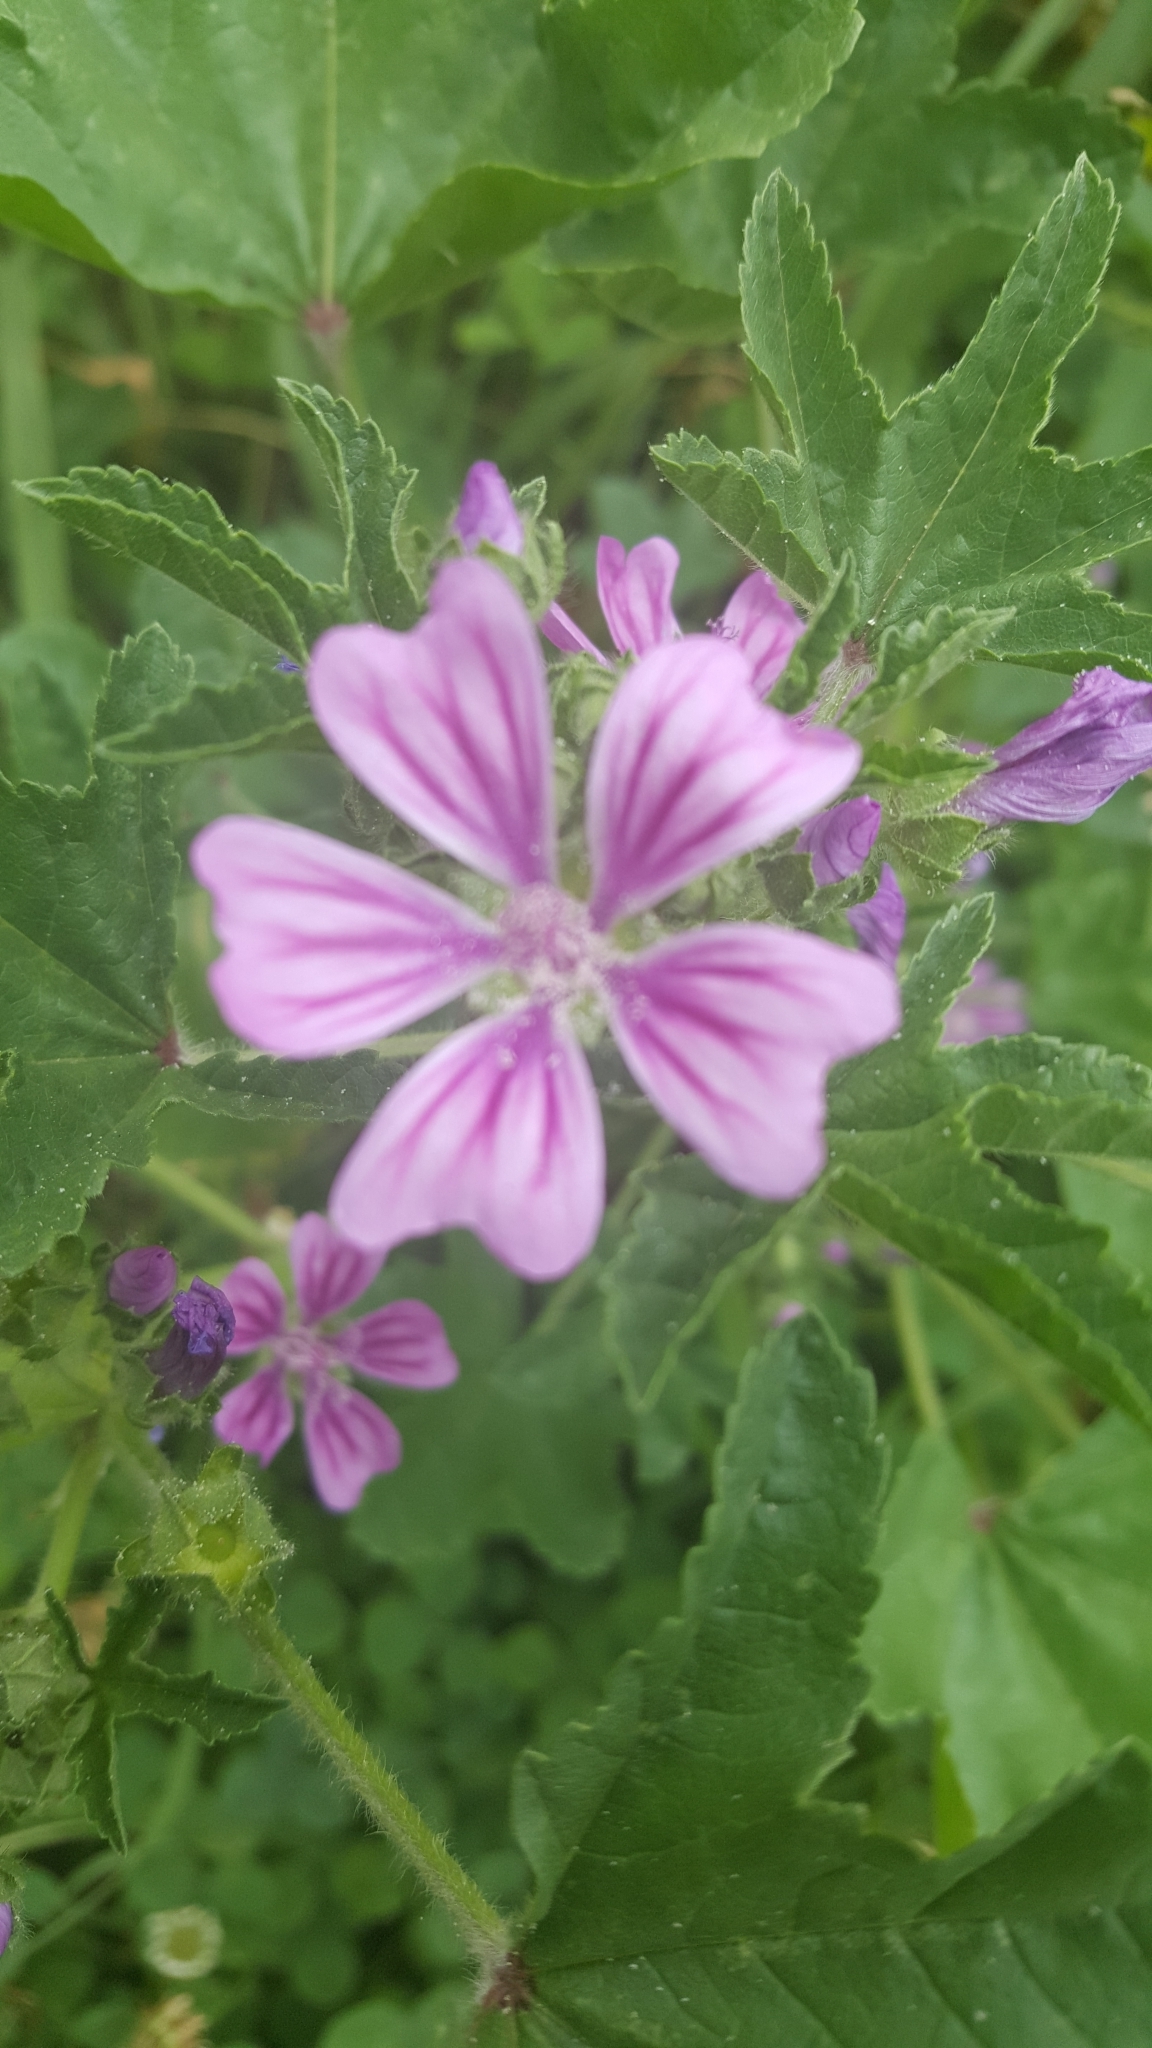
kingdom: Plantae
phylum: Tracheophyta
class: Magnoliopsida
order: Malvales
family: Malvaceae
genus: Malva
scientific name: Malva sylvestris
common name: Common mallow
